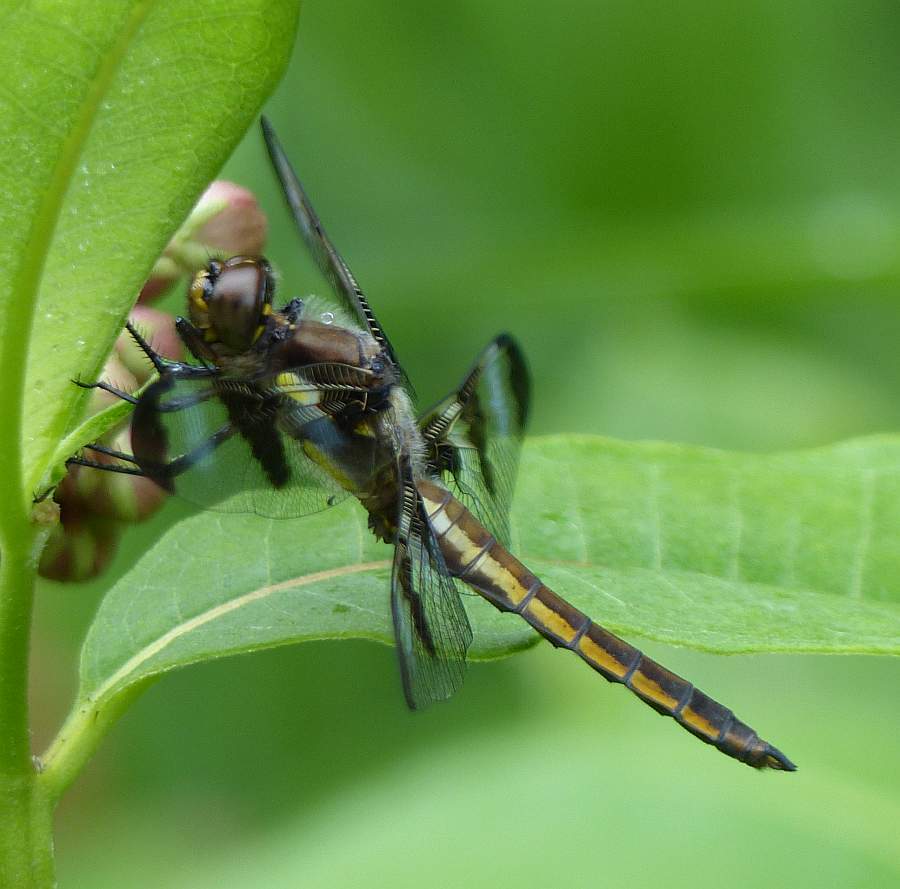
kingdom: Animalia
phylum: Arthropoda
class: Insecta
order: Odonata
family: Libellulidae
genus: Libellula
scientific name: Libellula pulchella
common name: Twelve-spotted skimmer
